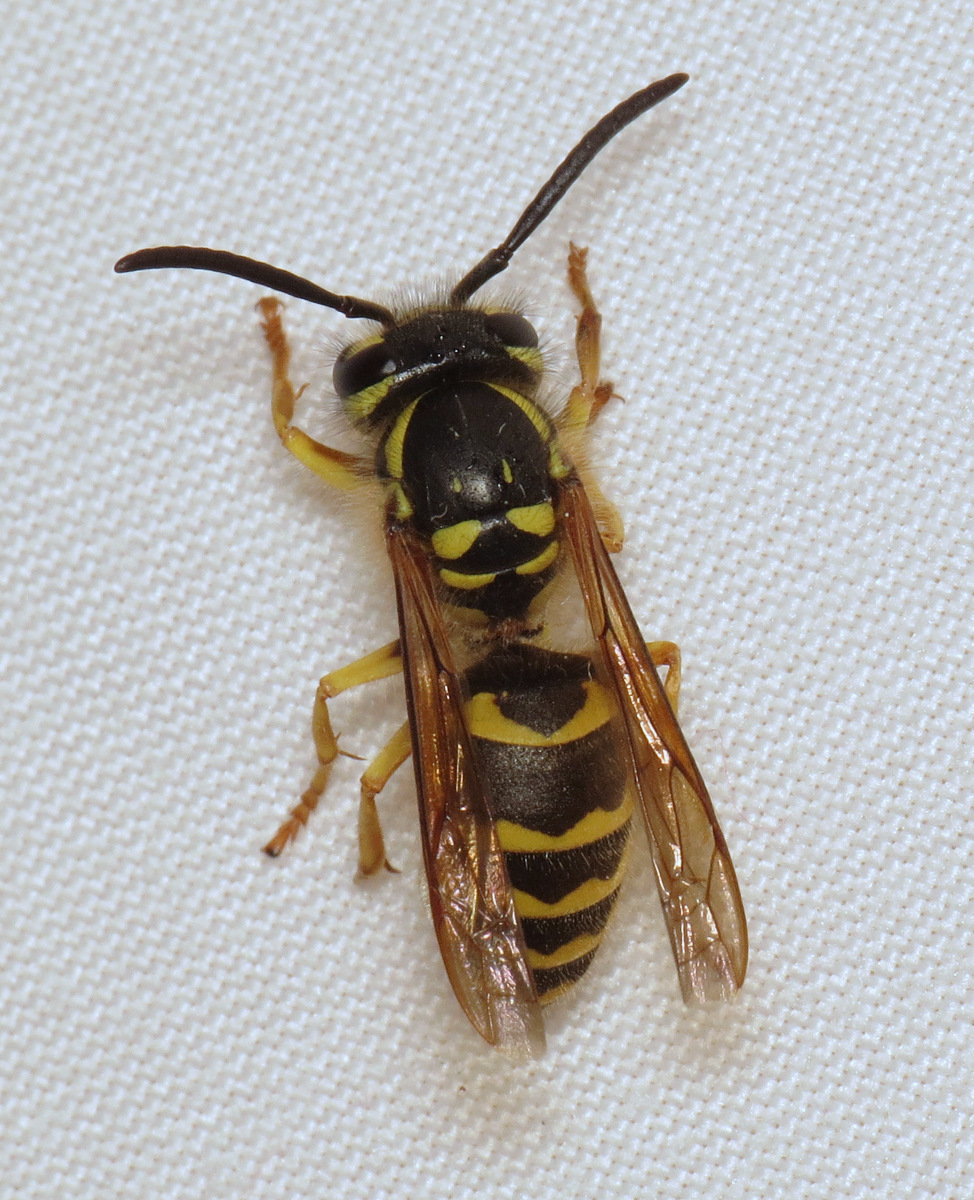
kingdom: Animalia
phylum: Arthropoda
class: Insecta
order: Hymenoptera
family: Vespidae
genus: Vespula
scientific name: Vespula flavopilosa
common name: Downy yellowjacket
